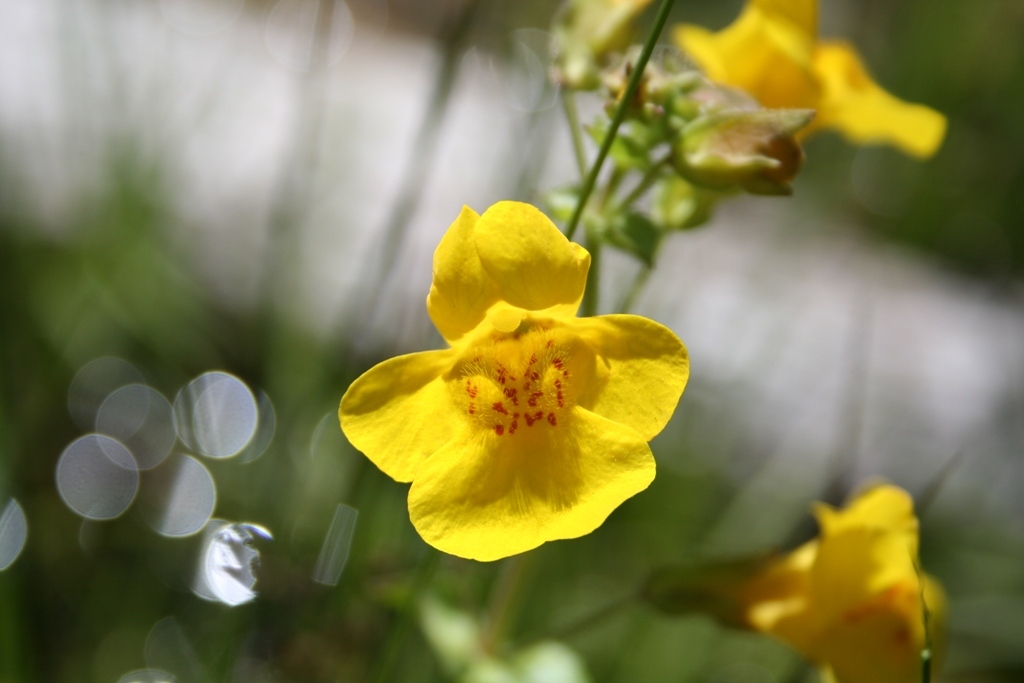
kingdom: Plantae
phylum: Tracheophyta
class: Magnoliopsida
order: Lamiales
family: Phrymaceae
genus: Erythranthe
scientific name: Erythranthe guttata
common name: Monkeyflower
